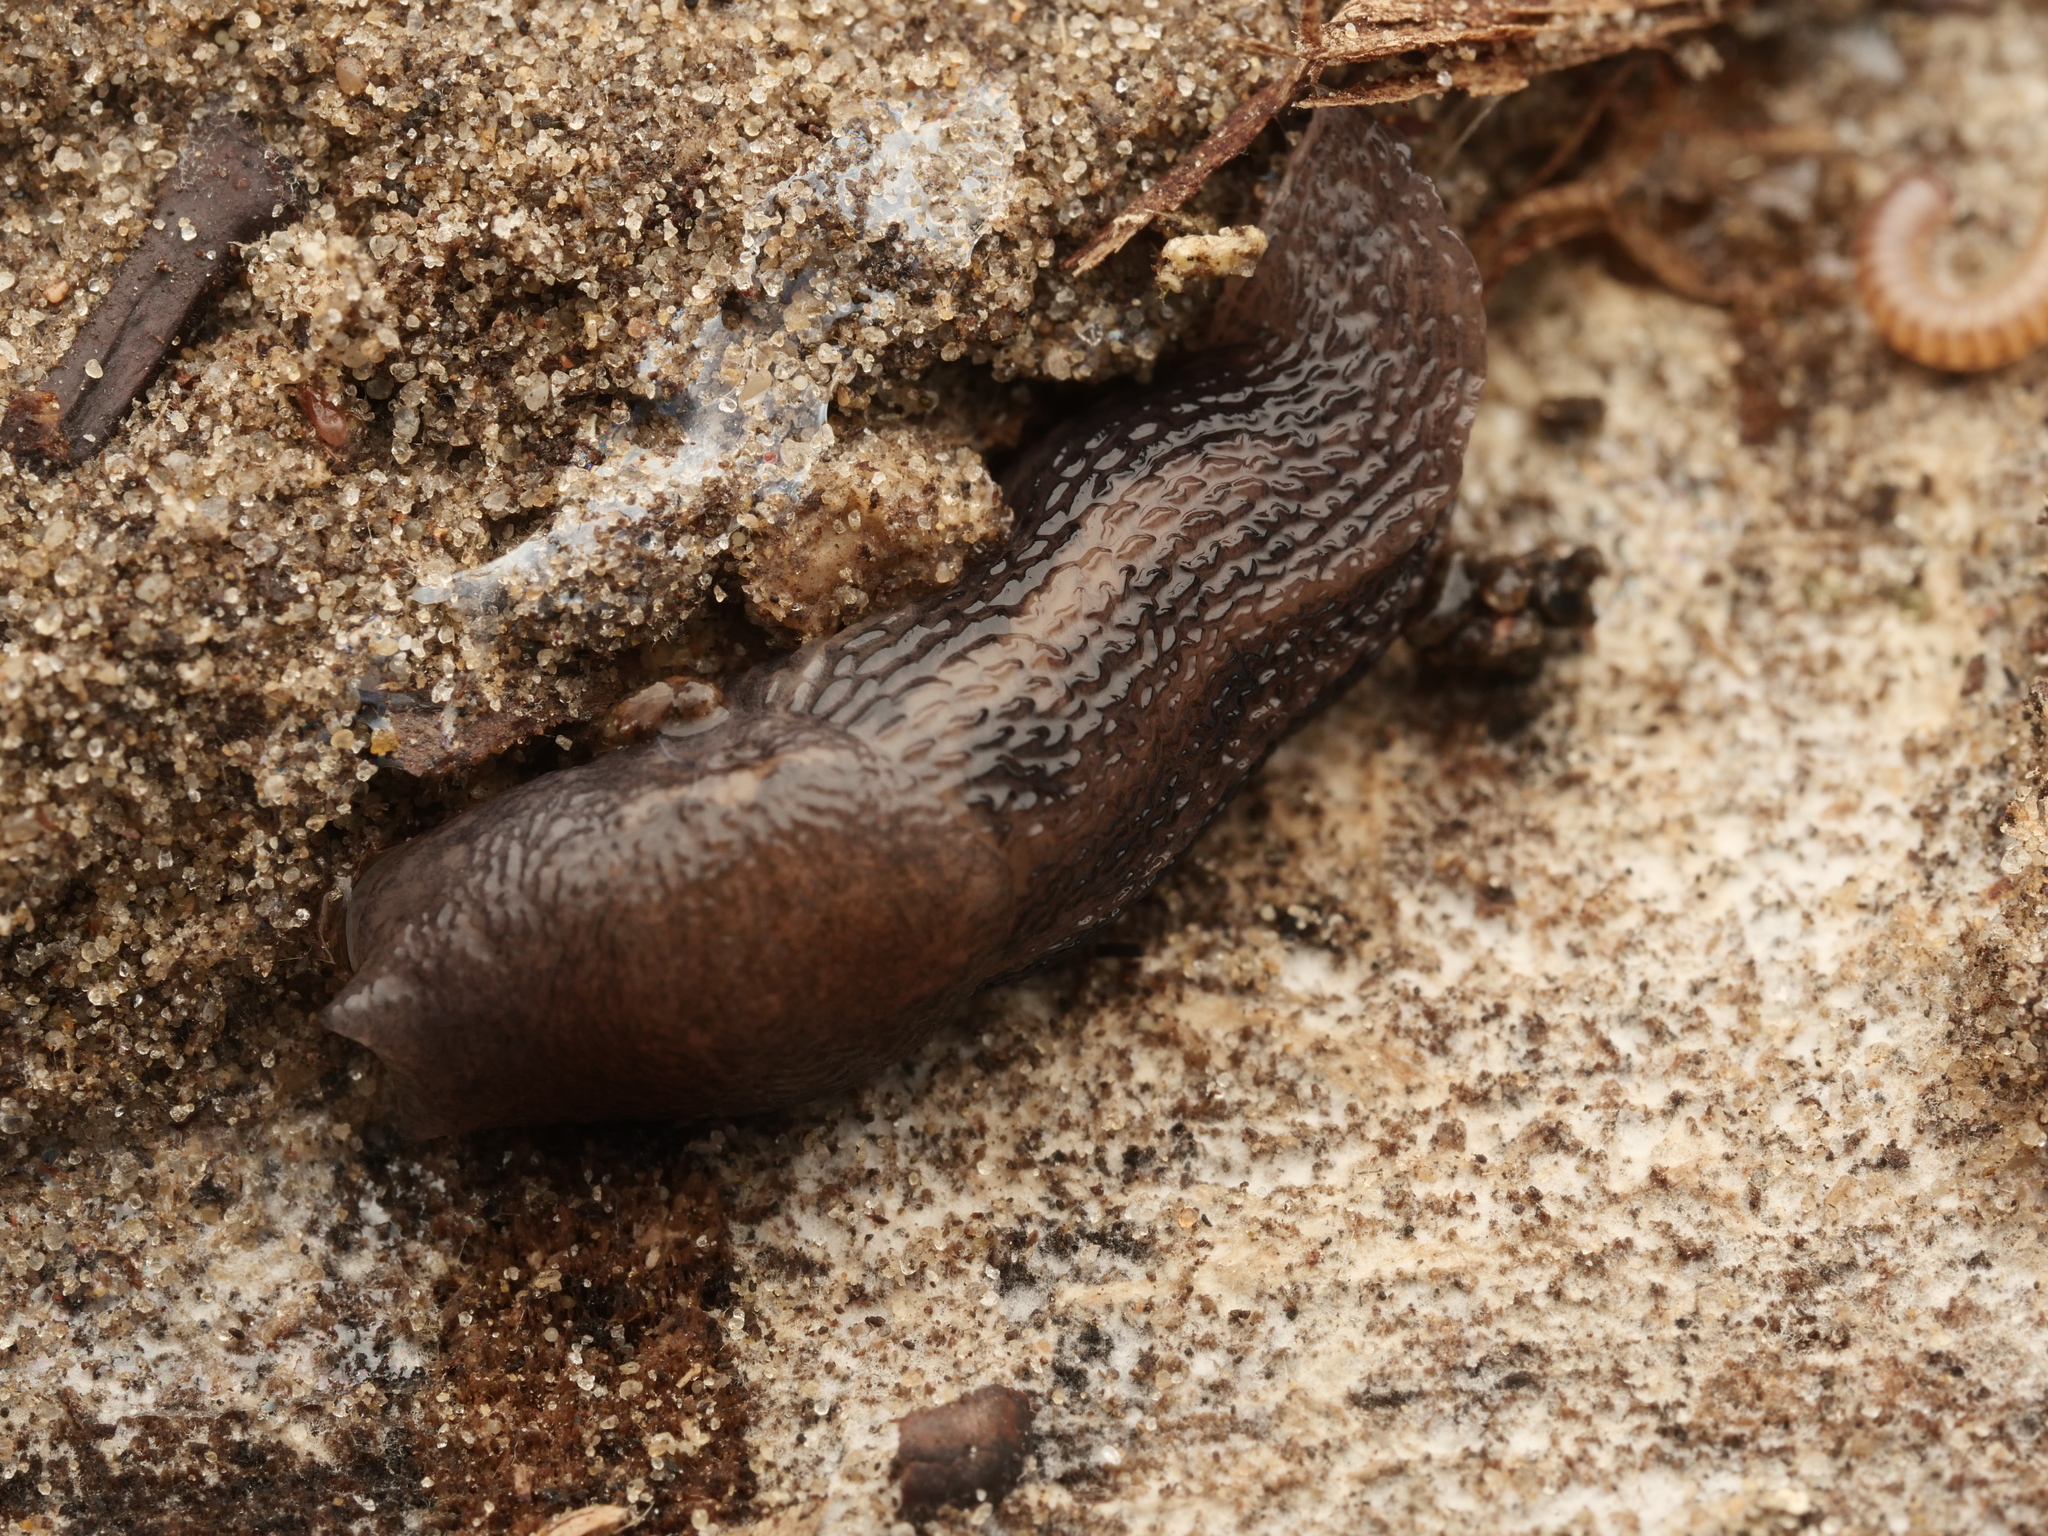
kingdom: Animalia
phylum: Mollusca
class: Gastropoda
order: Stylommatophora
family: Limacidae
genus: Limax
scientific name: Limax maximus
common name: Great grey slug
